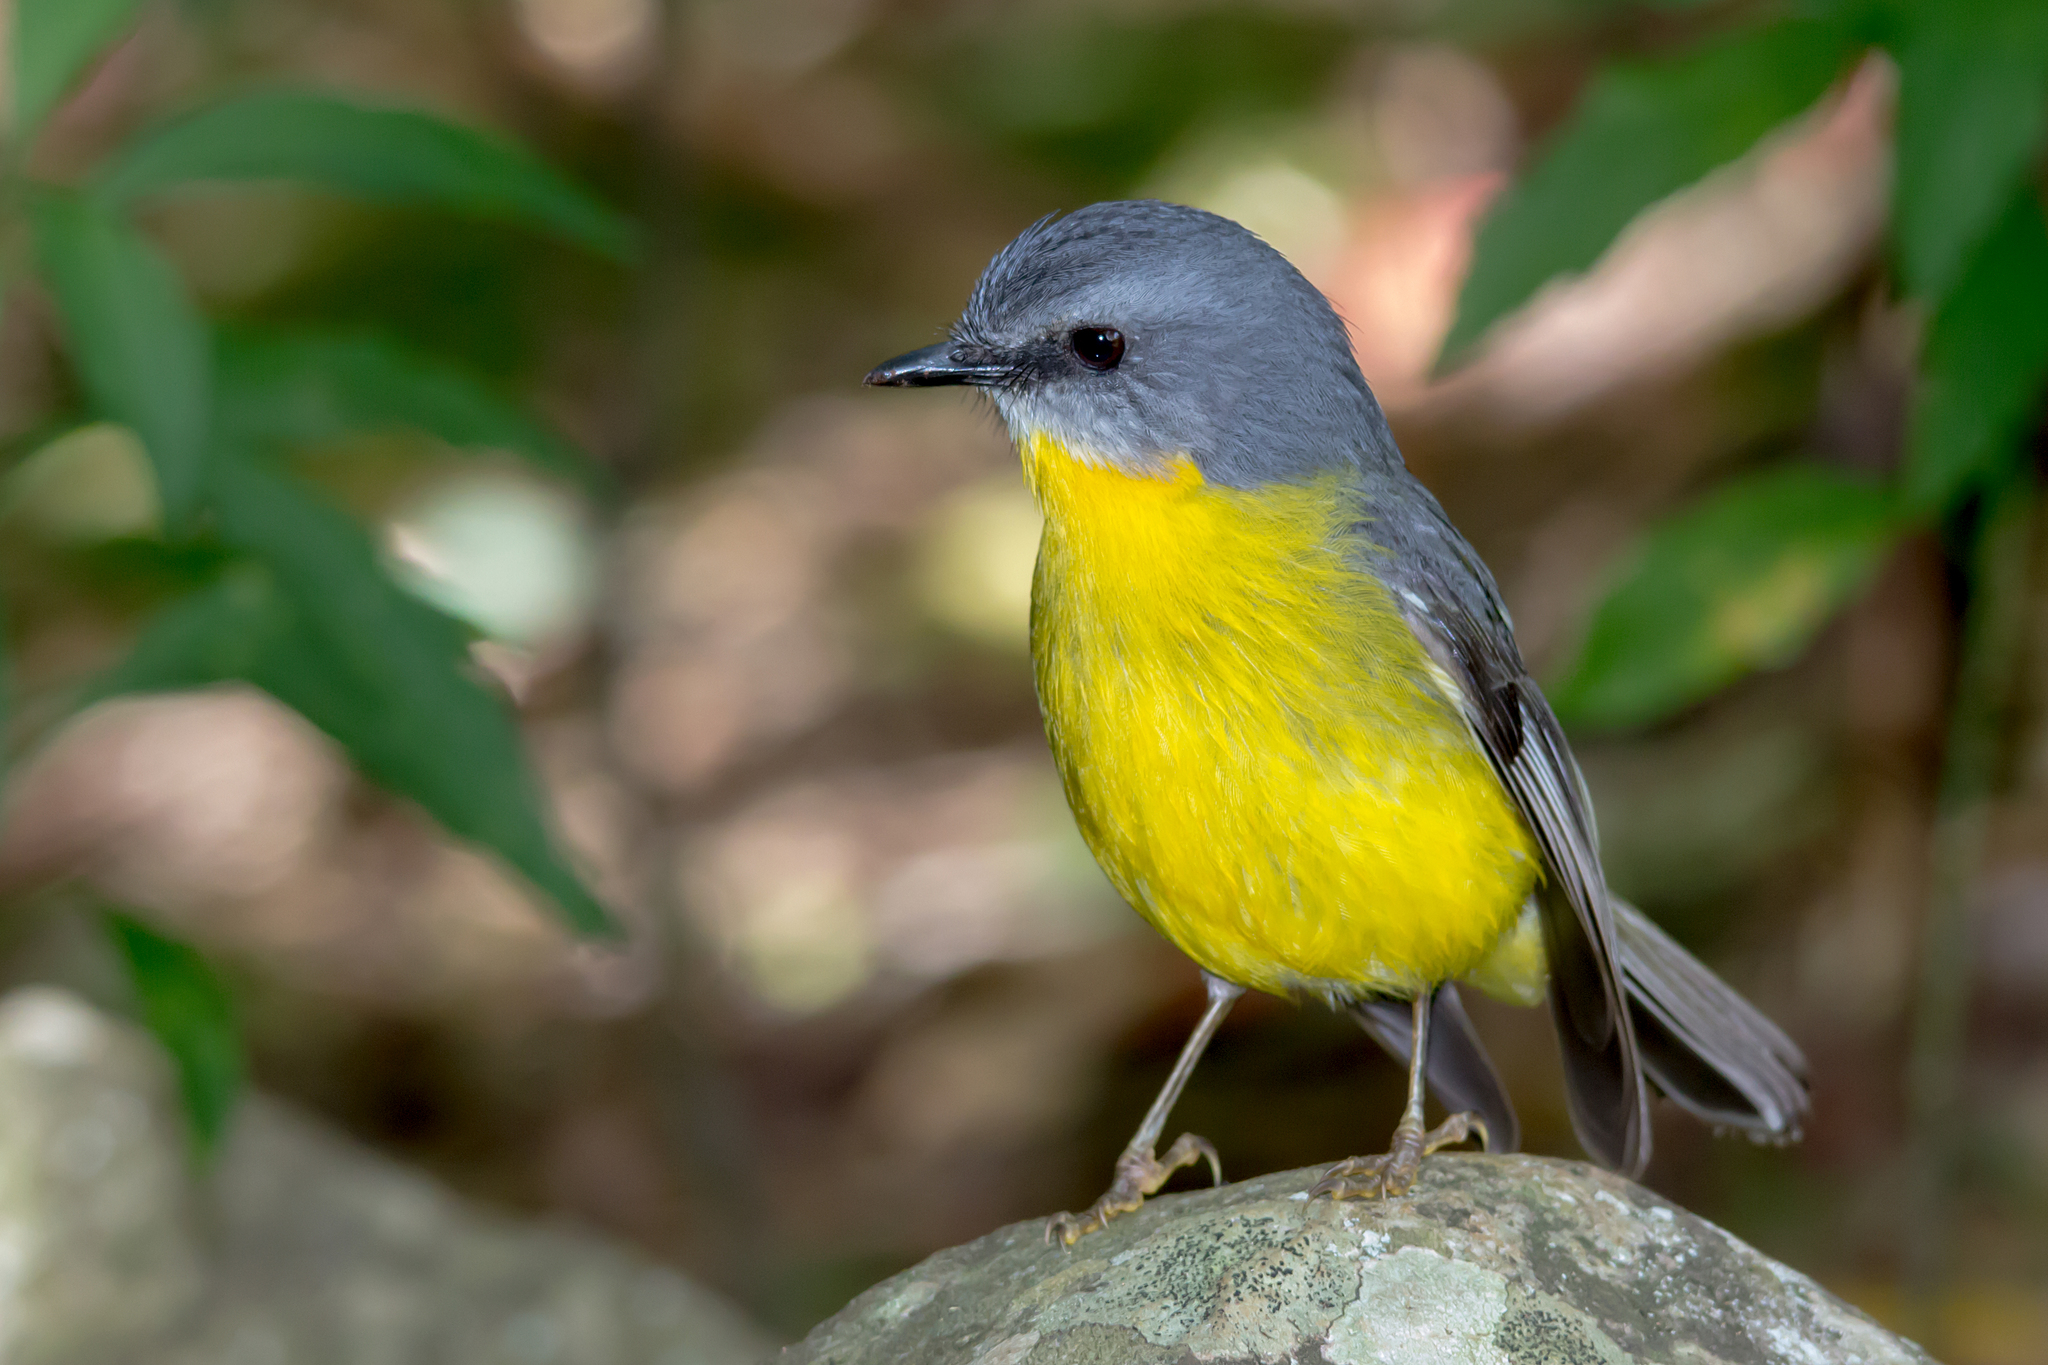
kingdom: Animalia
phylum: Chordata
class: Aves
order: Passeriformes
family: Petroicidae
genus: Eopsaltria
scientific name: Eopsaltria australis
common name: Eastern yellow robin
